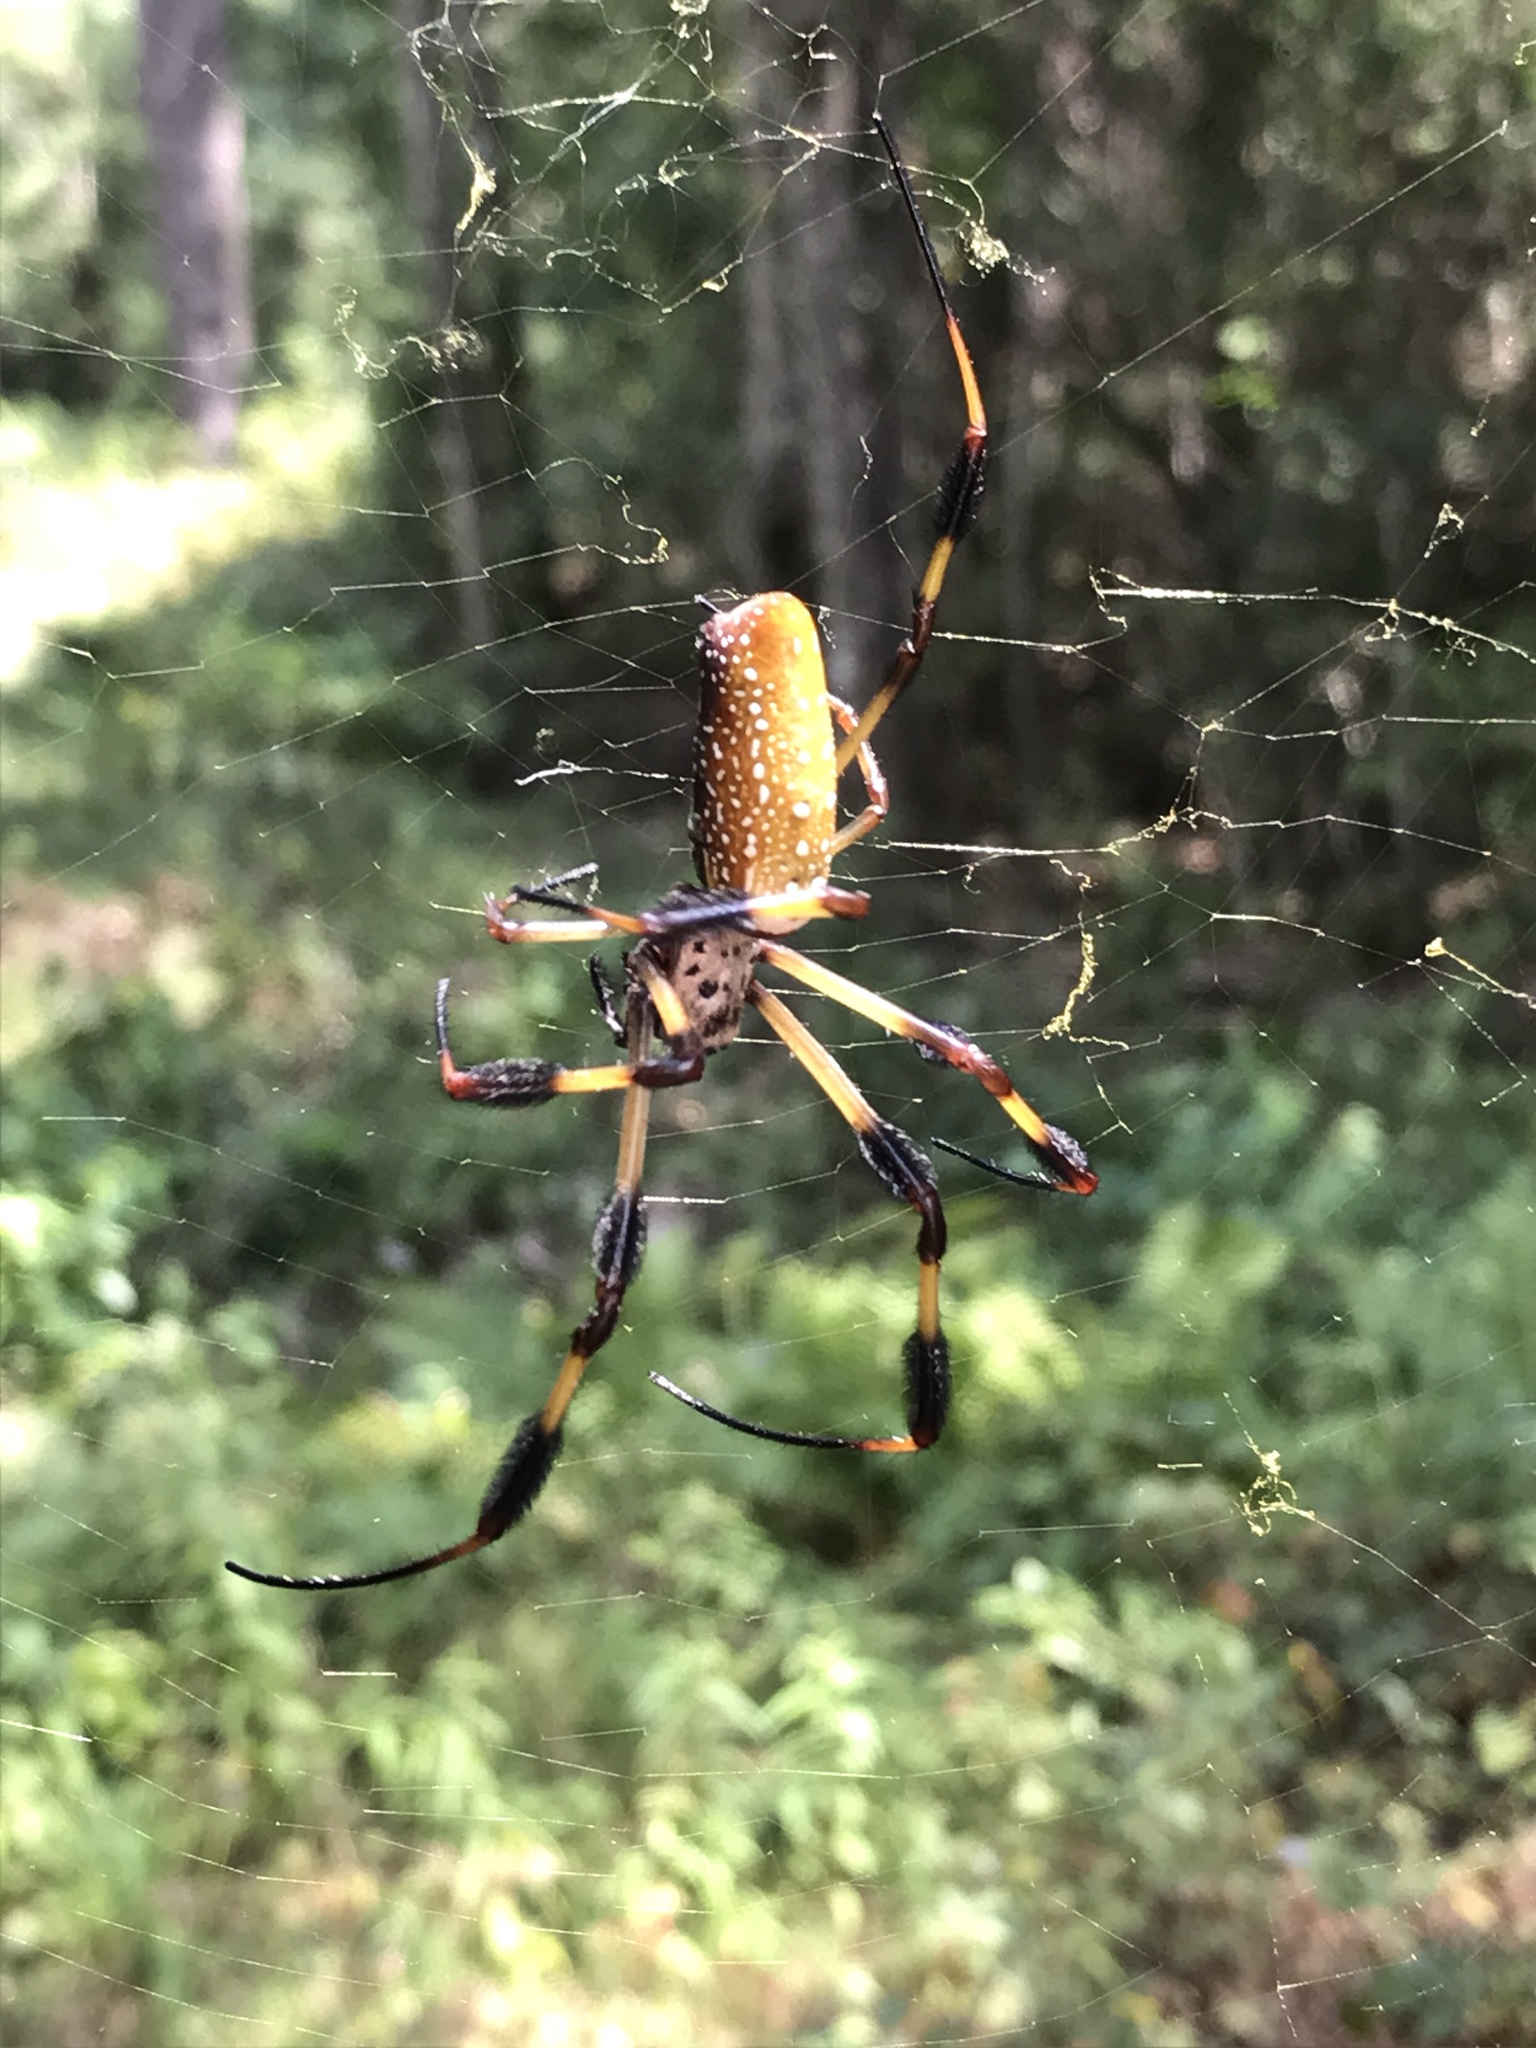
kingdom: Animalia
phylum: Arthropoda
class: Arachnida
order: Araneae
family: Araneidae
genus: Trichonephila
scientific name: Trichonephila clavipes
